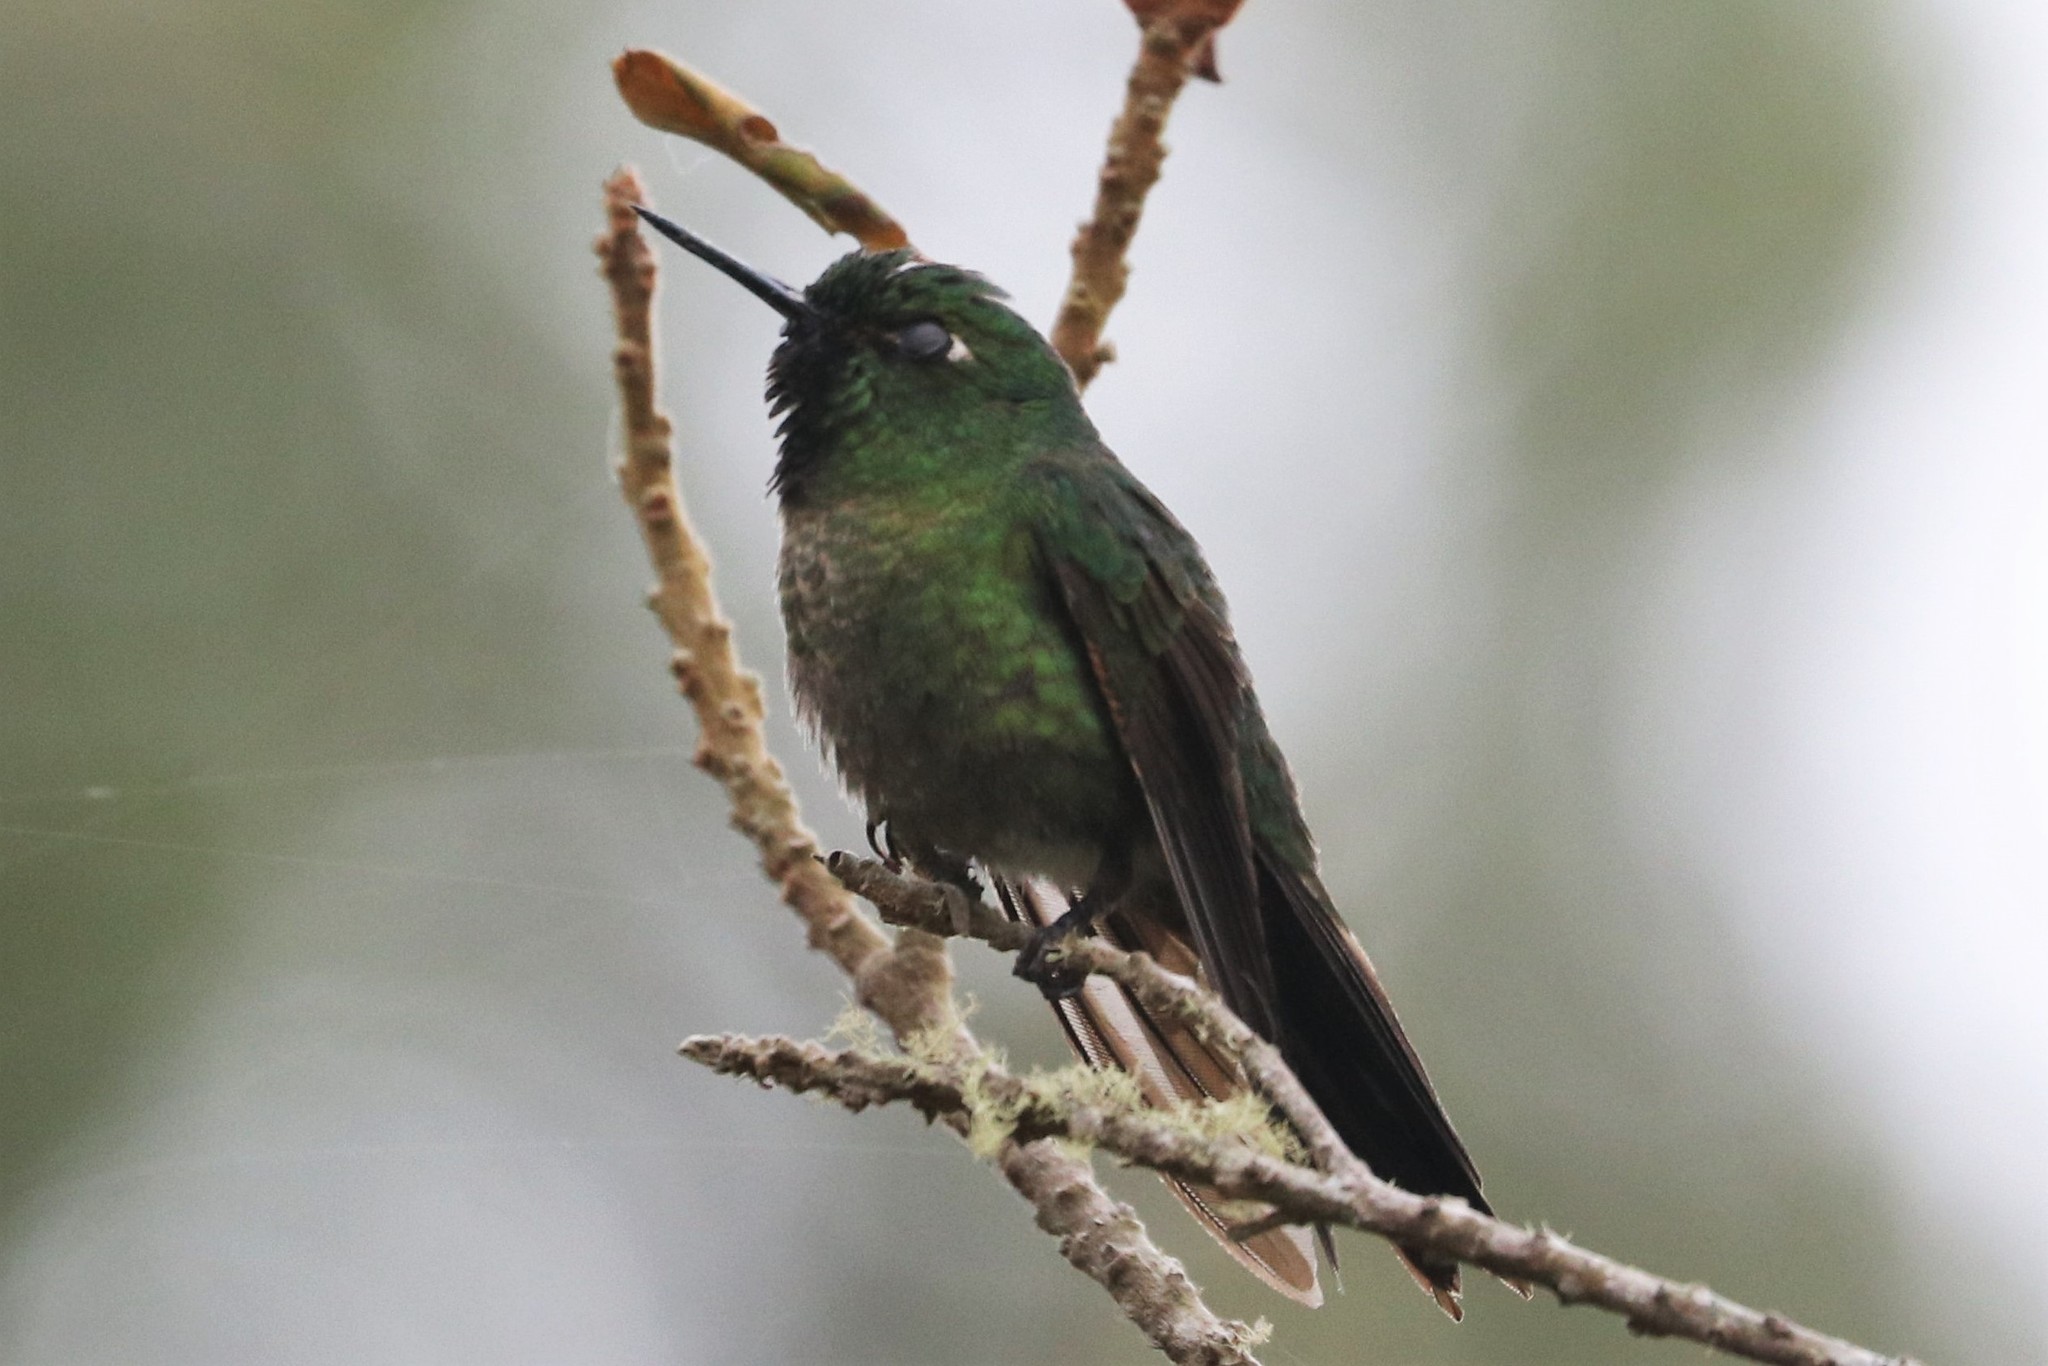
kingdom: Animalia
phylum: Chordata
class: Aves
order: Apodiformes
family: Trochilidae
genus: Metallura
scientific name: Metallura tyrianthina
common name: Tyrian metaltail
